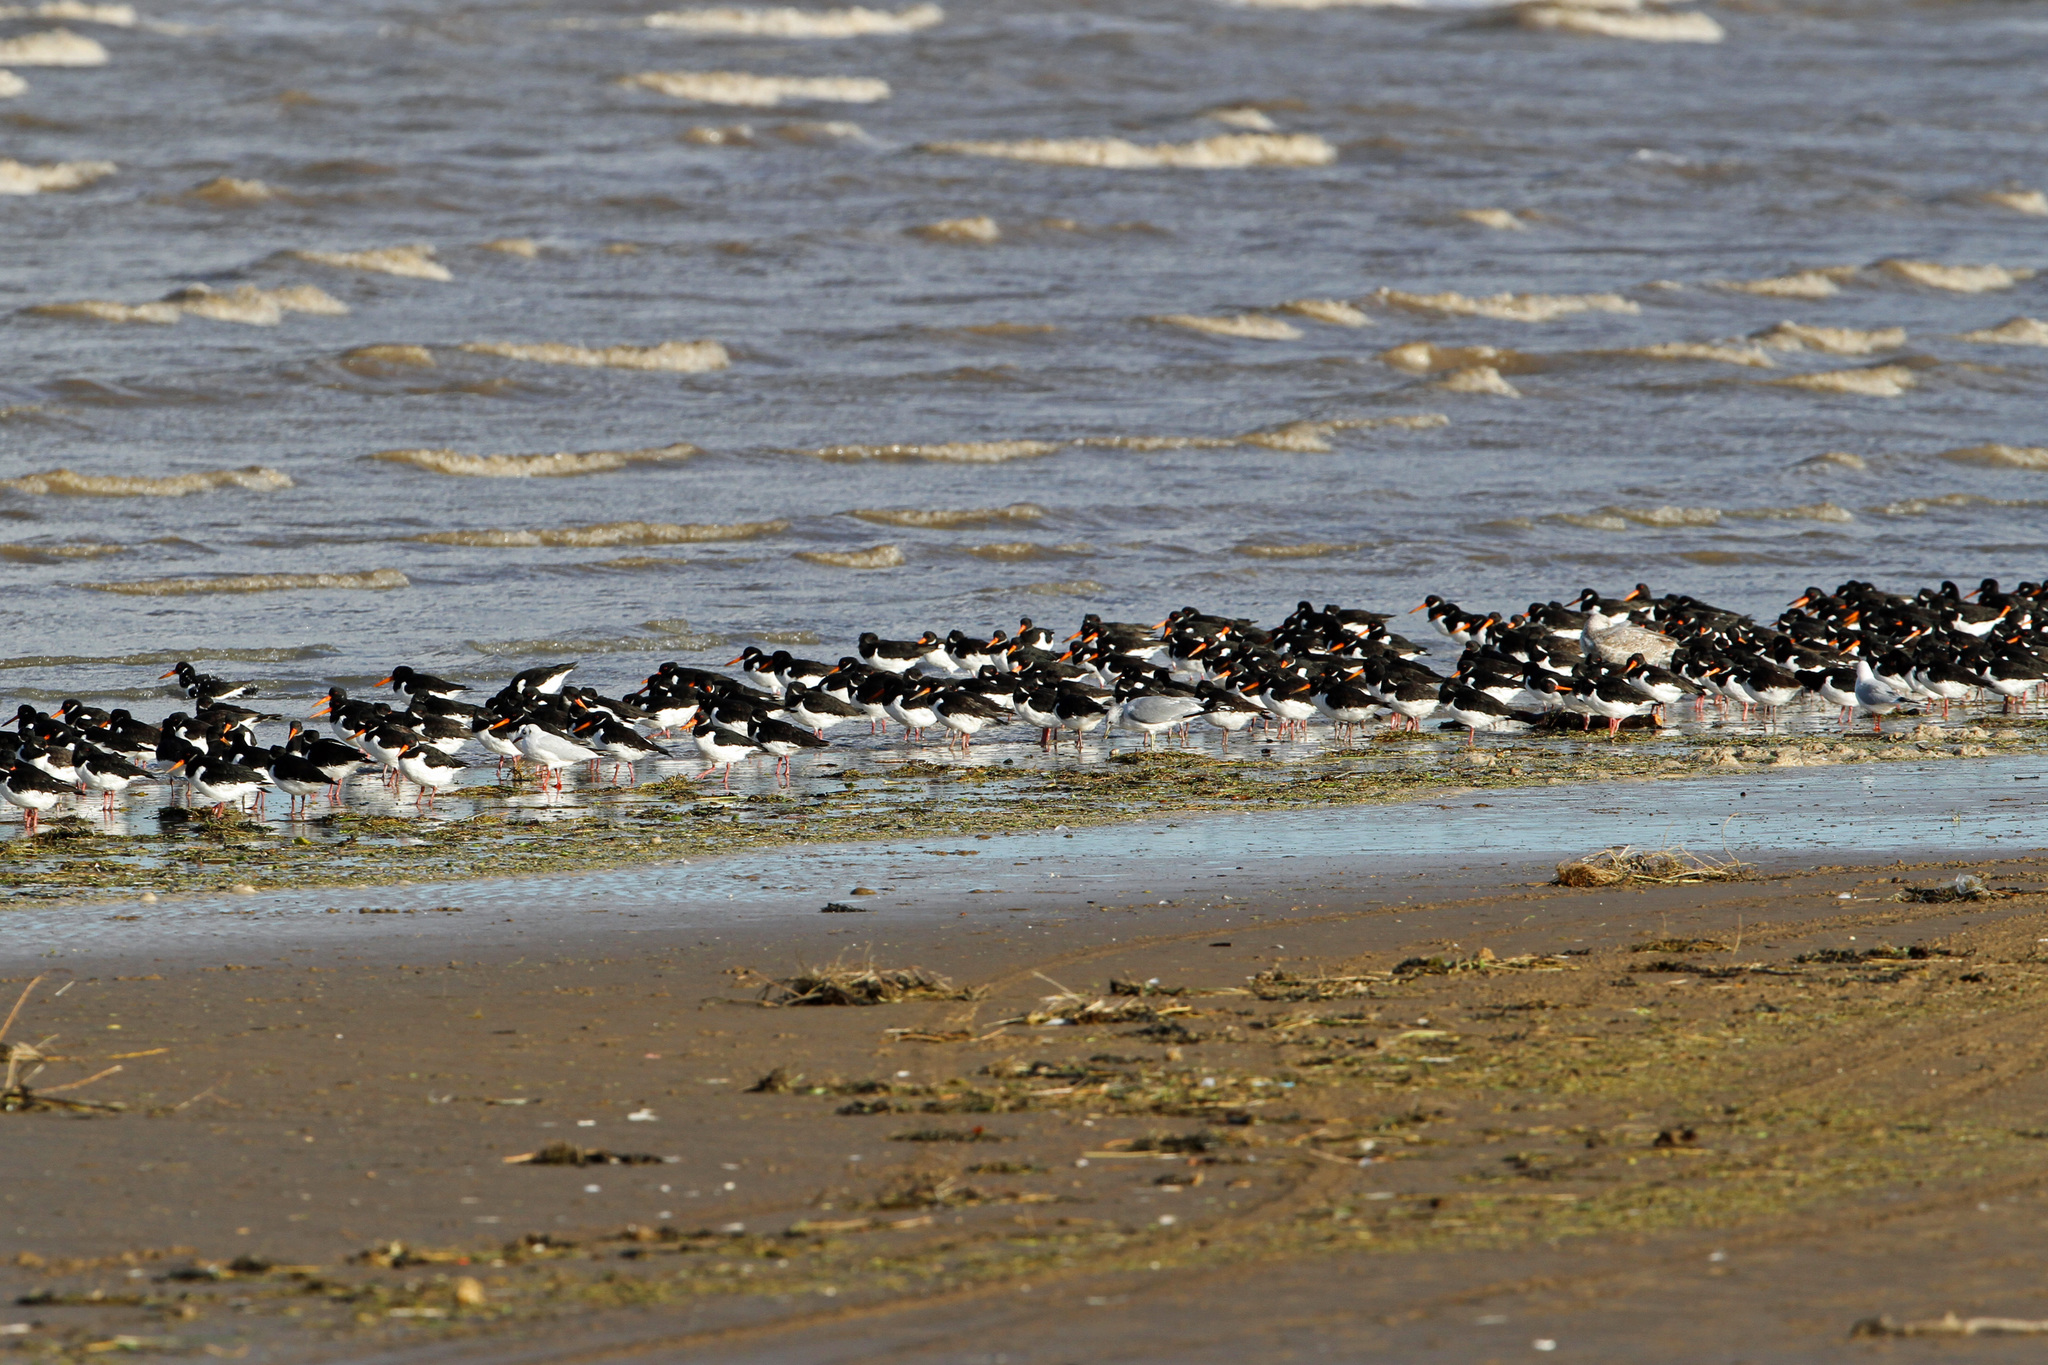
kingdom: Animalia
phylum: Chordata
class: Aves
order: Charadriiformes
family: Haematopodidae
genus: Haematopus
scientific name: Haematopus ostralegus
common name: Eurasian oystercatcher
